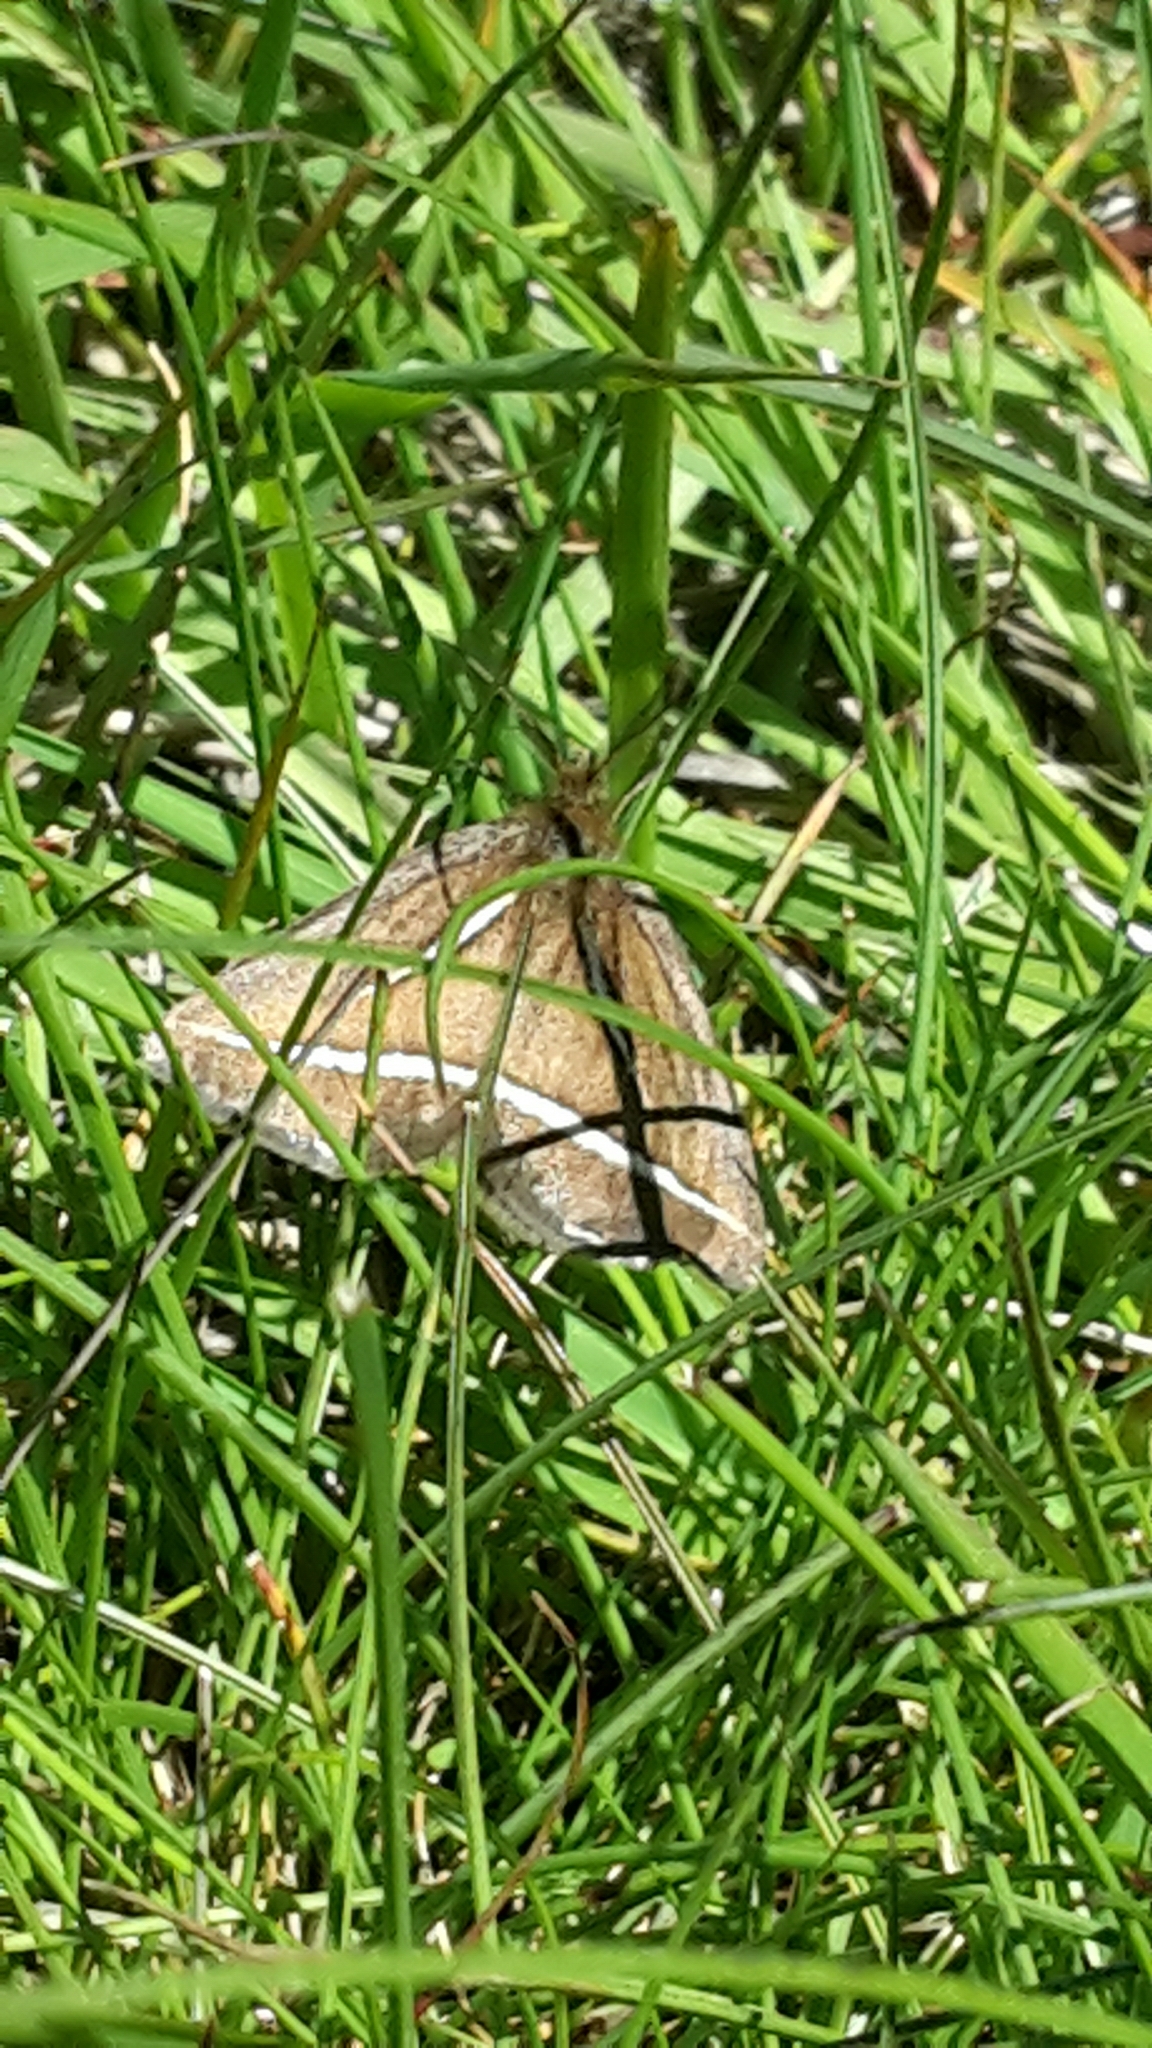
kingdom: Animalia
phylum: Arthropoda
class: Insecta
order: Lepidoptera
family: Geometridae
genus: Aponotoreas
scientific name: Aponotoreas insignis
